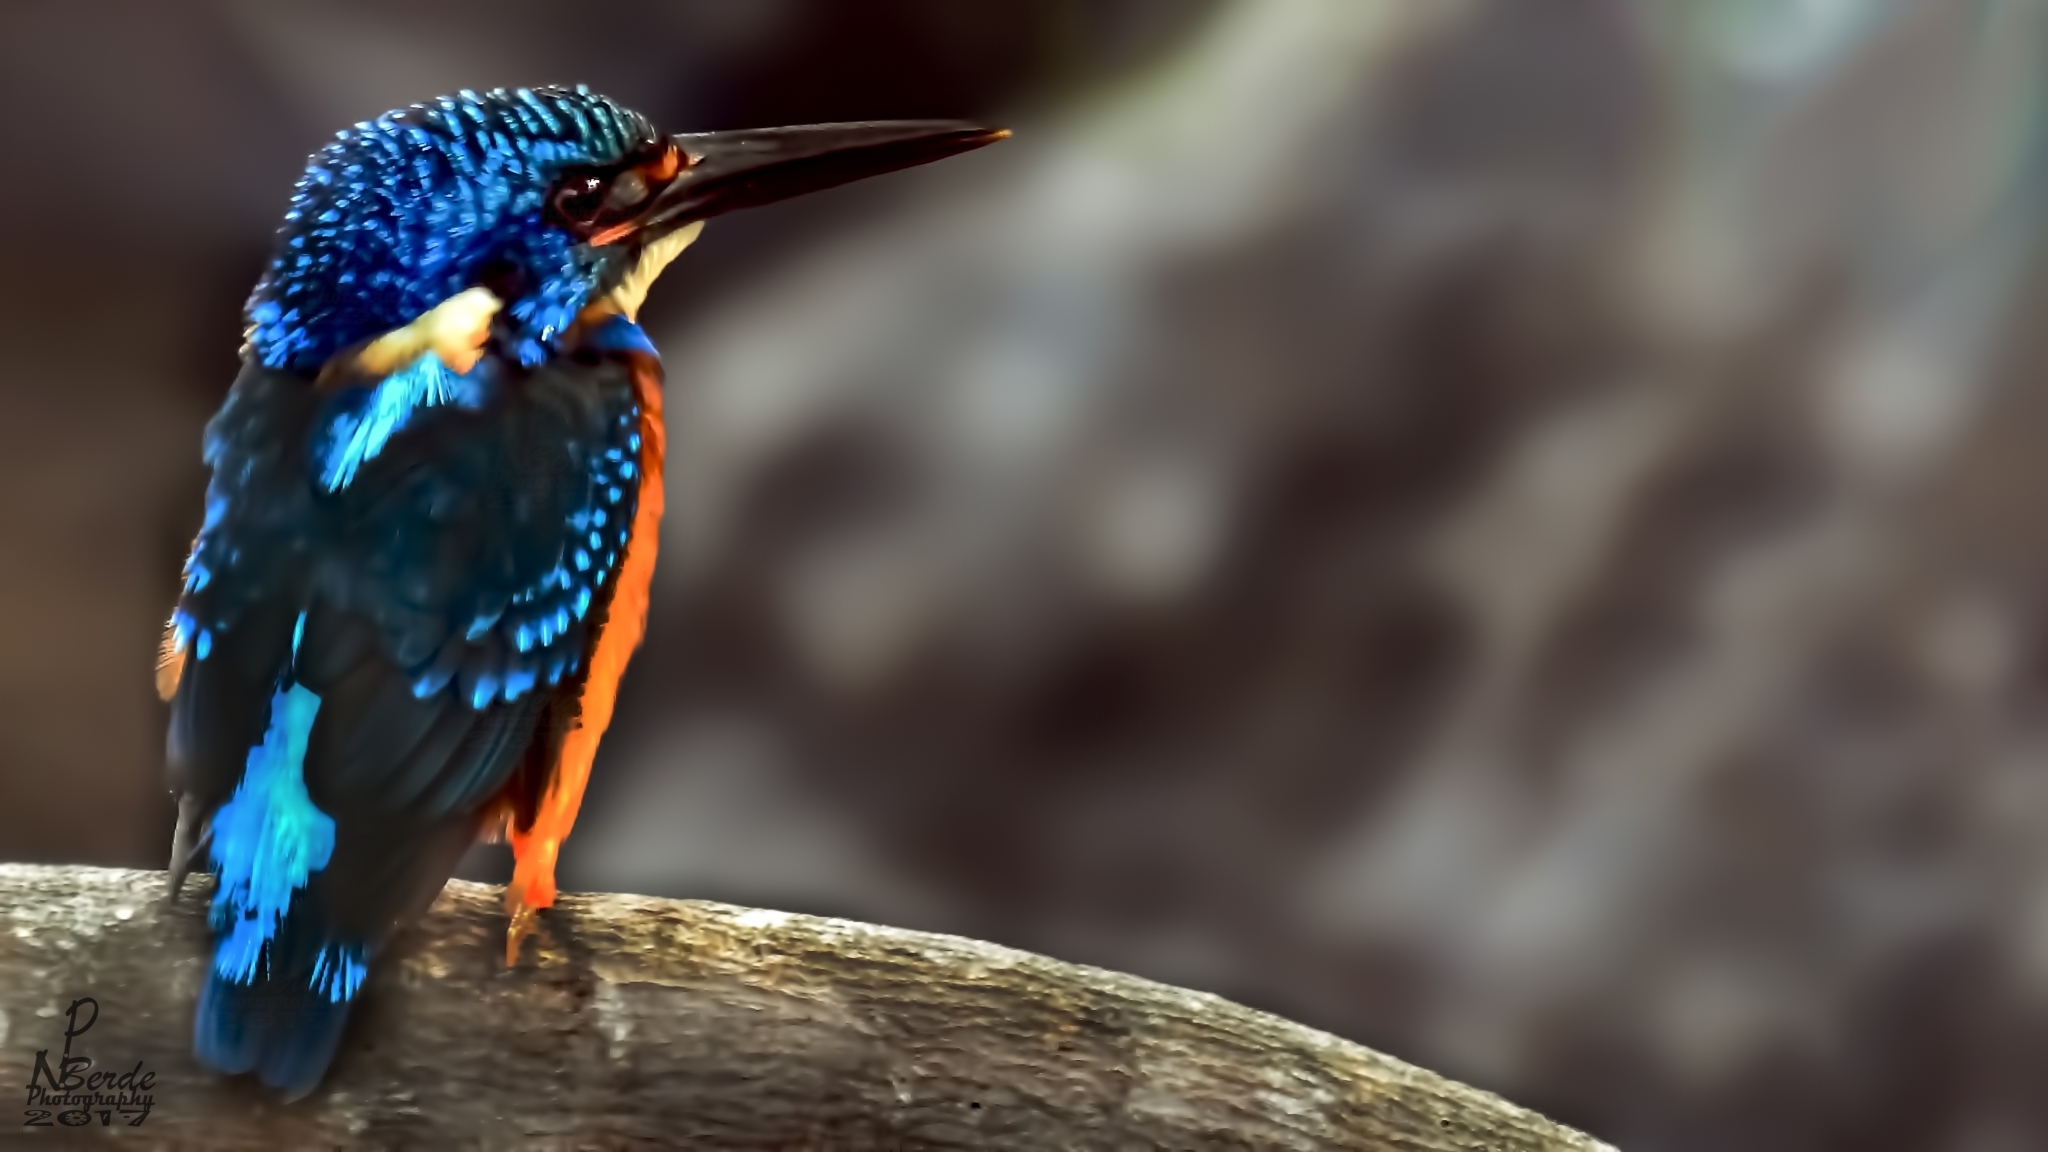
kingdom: Animalia
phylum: Chordata
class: Aves
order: Coraciiformes
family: Alcedinidae
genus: Alcedo
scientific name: Alcedo meninting
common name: Blue-eared kingfisher
